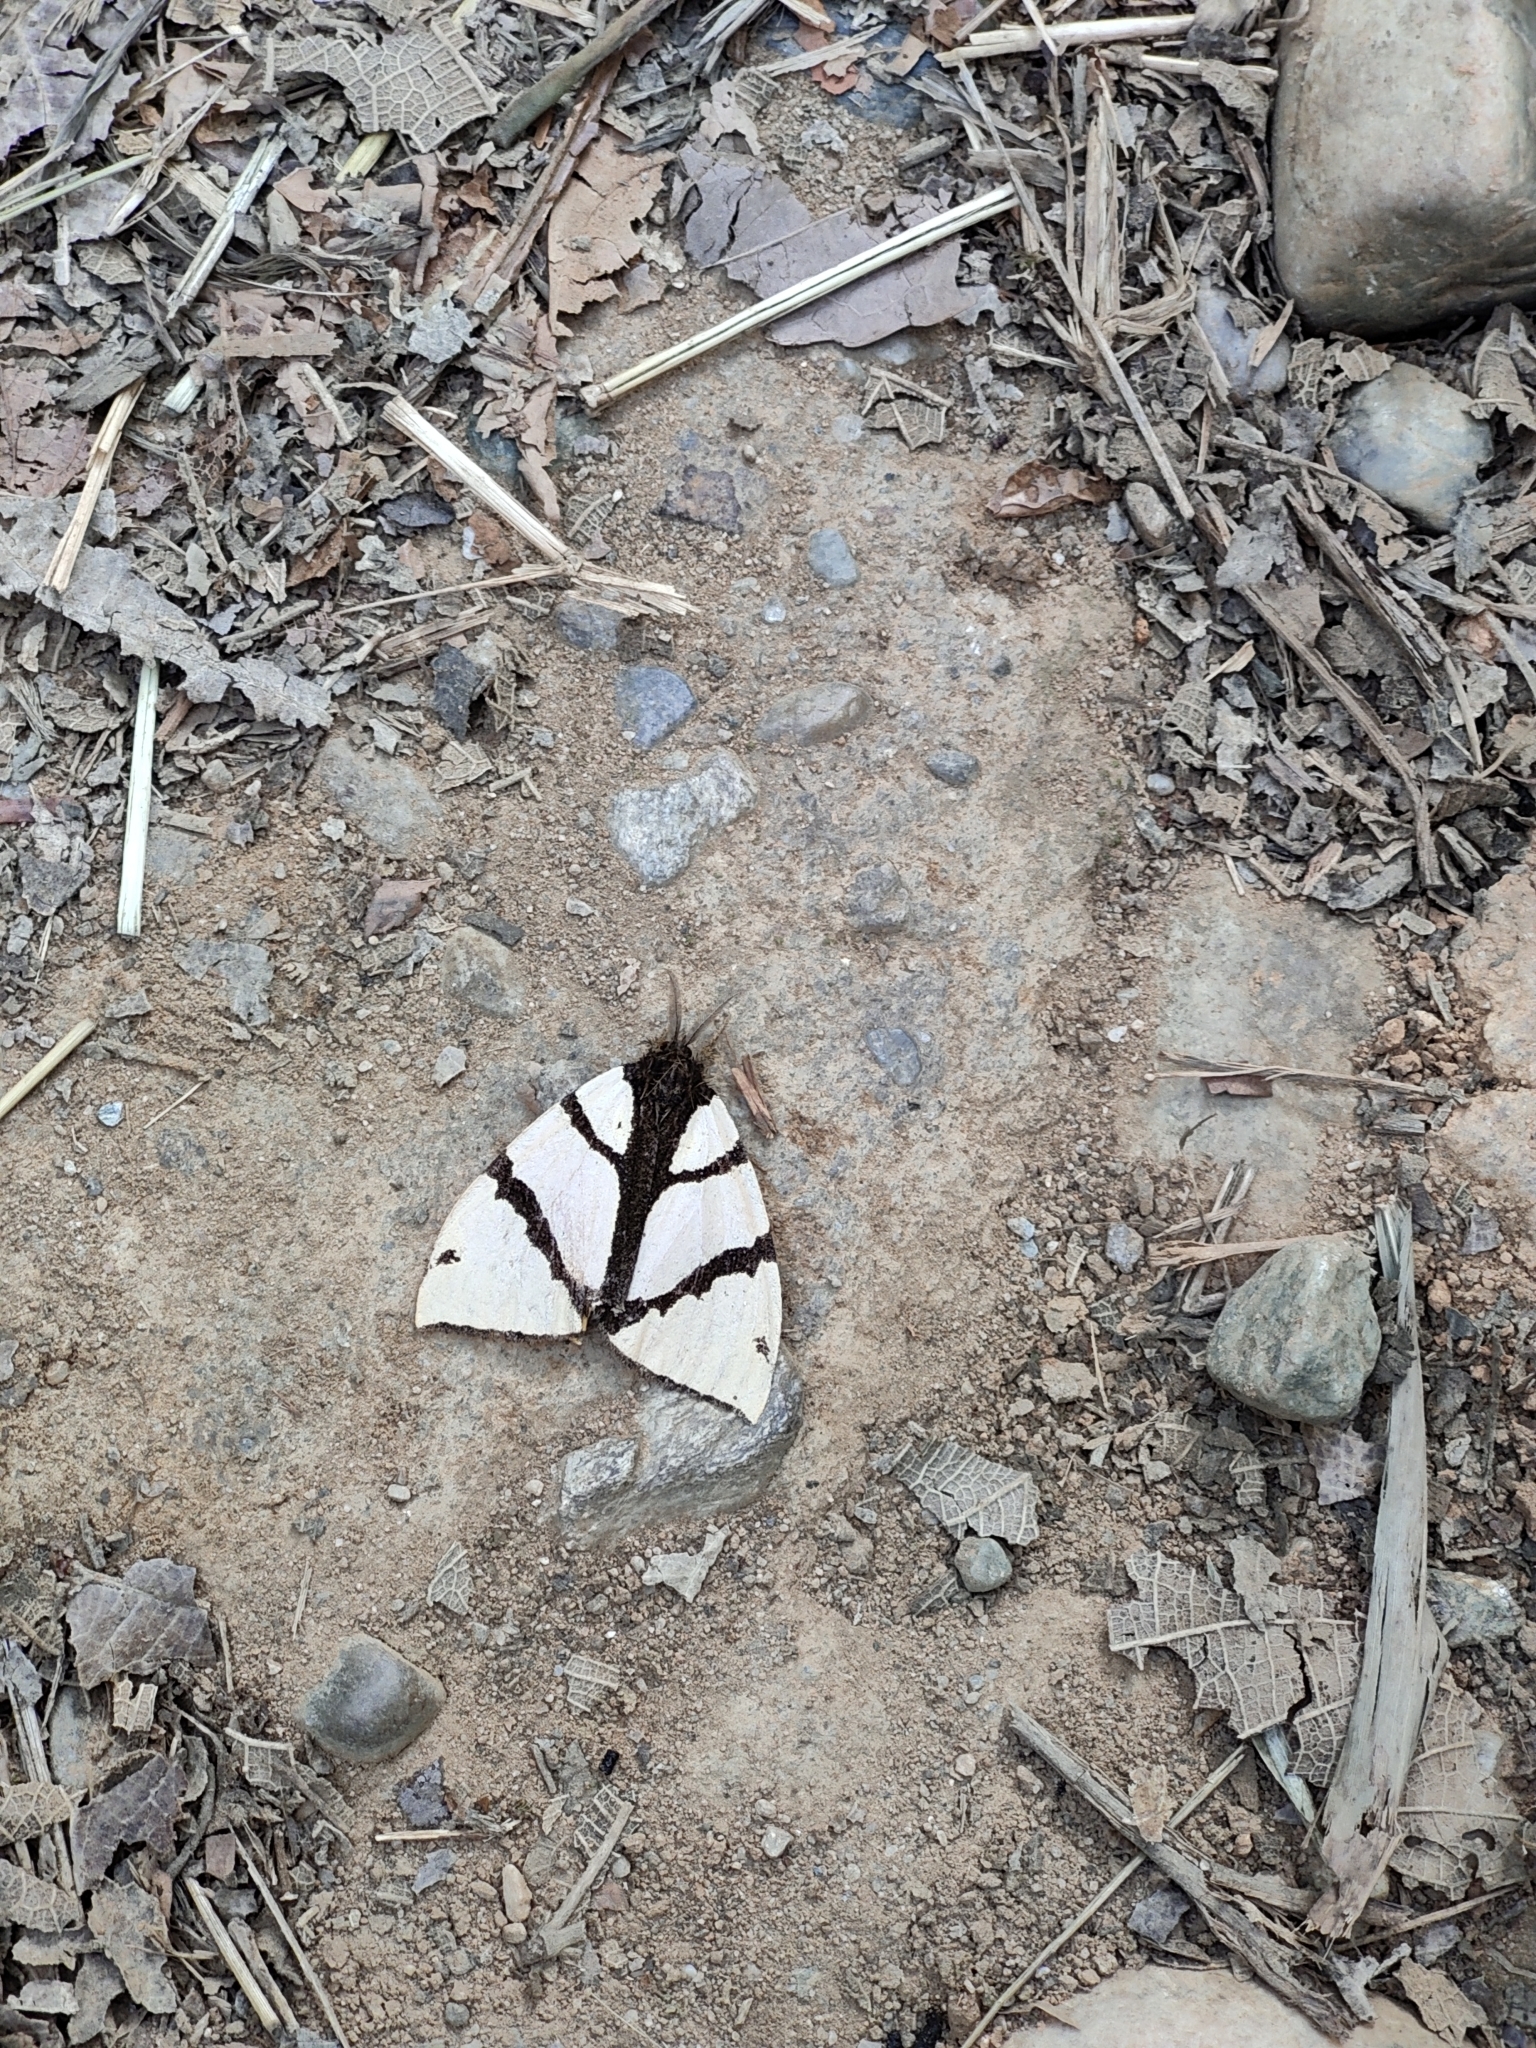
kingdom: Animalia
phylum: Arthropoda
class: Insecta
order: Lepidoptera
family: Erebidae
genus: Numenes
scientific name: Numenes siletti
